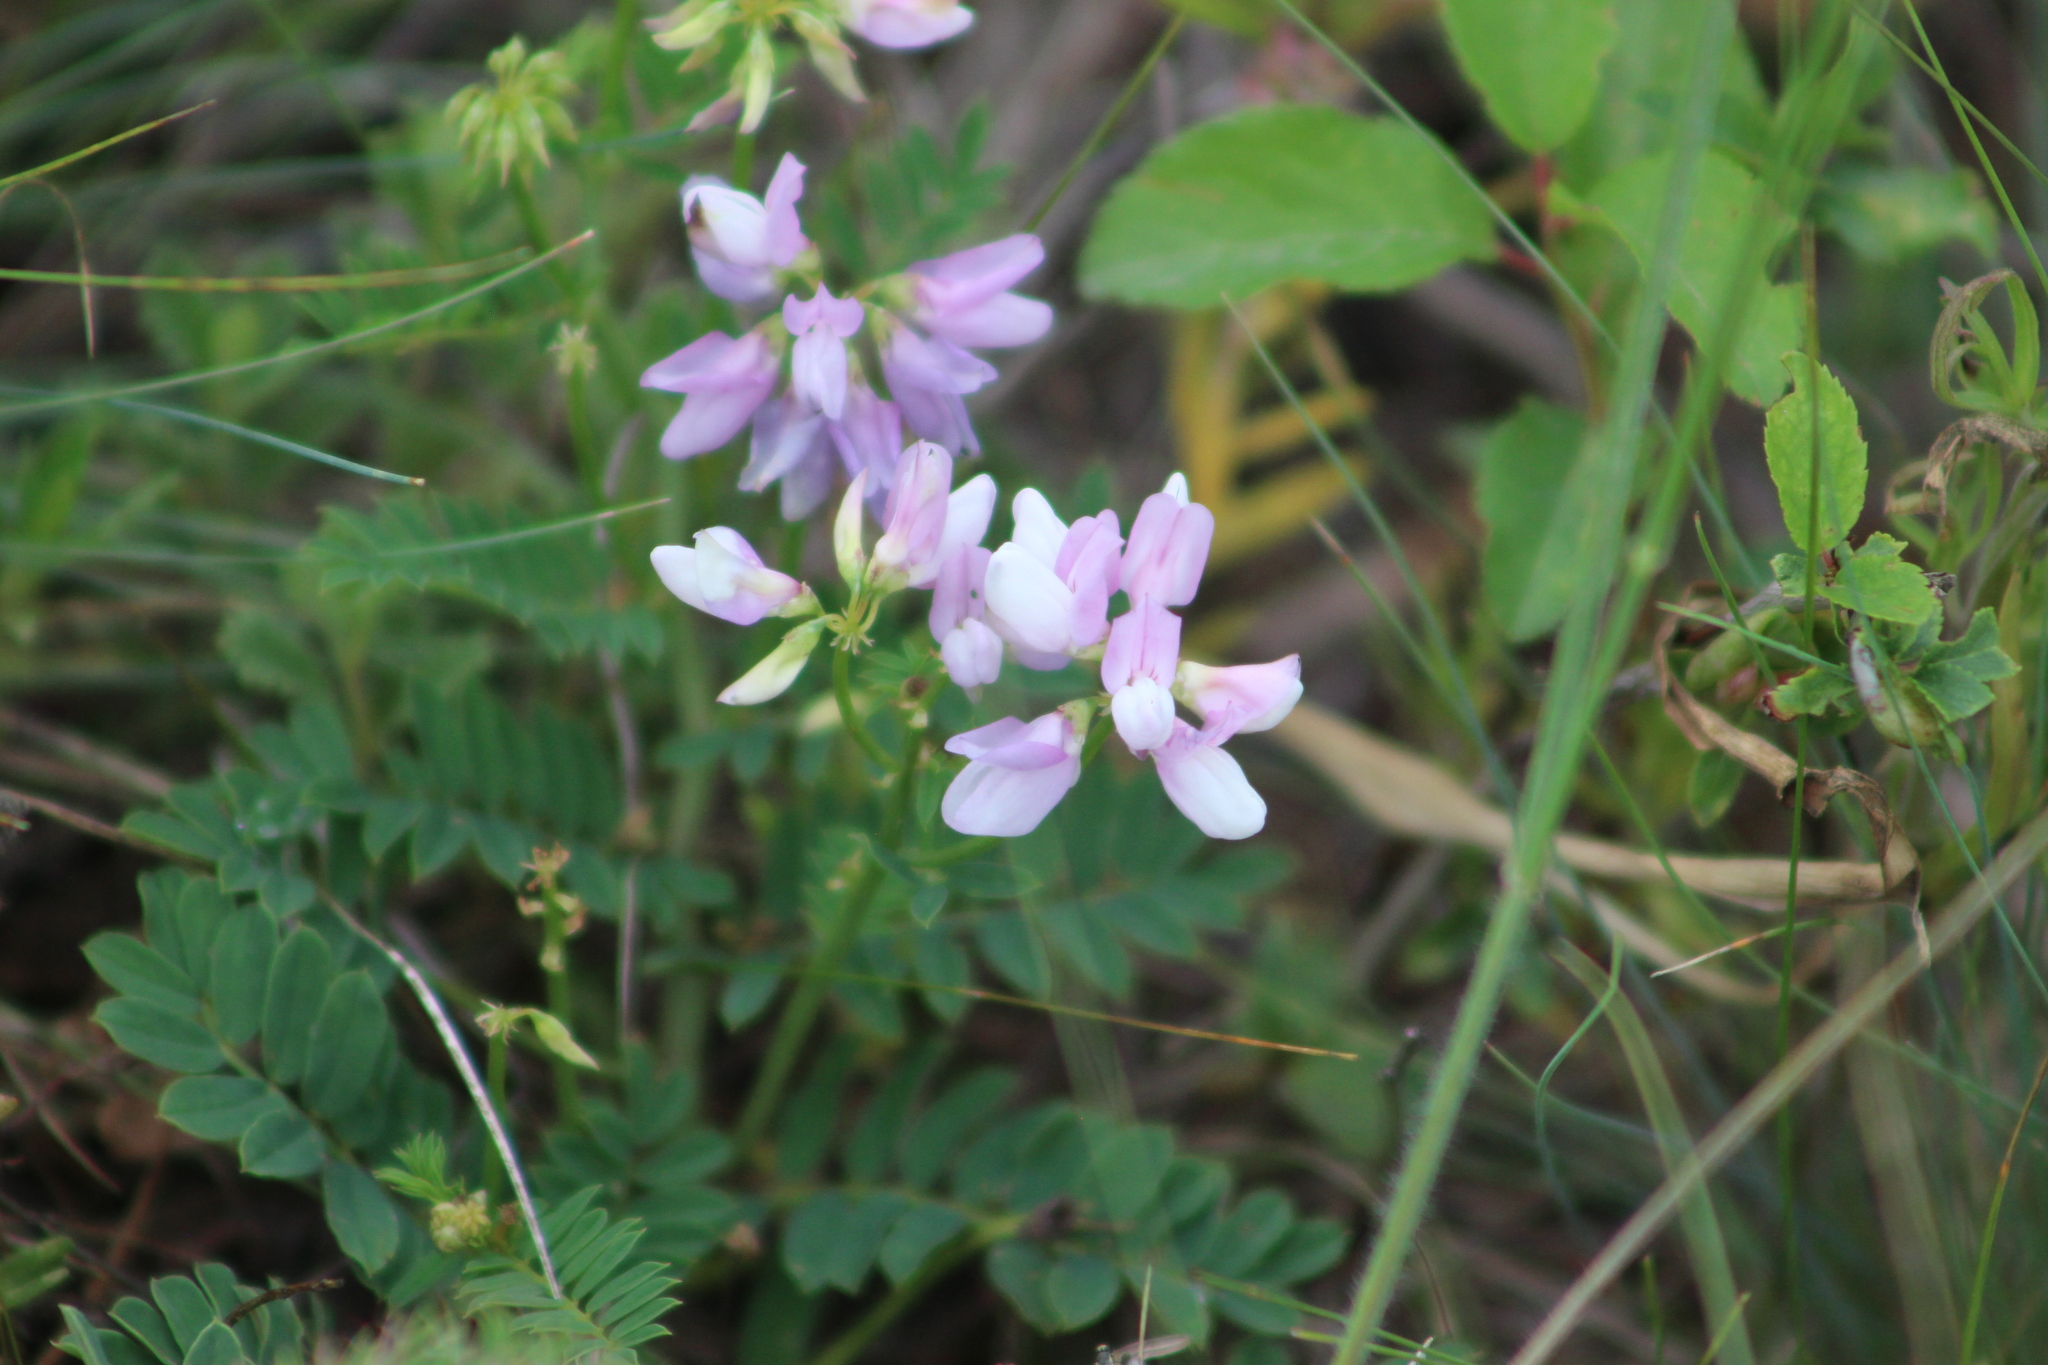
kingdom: Plantae
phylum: Tracheophyta
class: Magnoliopsida
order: Fabales
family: Fabaceae
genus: Coronilla
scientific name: Coronilla varia
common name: Crownvetch
